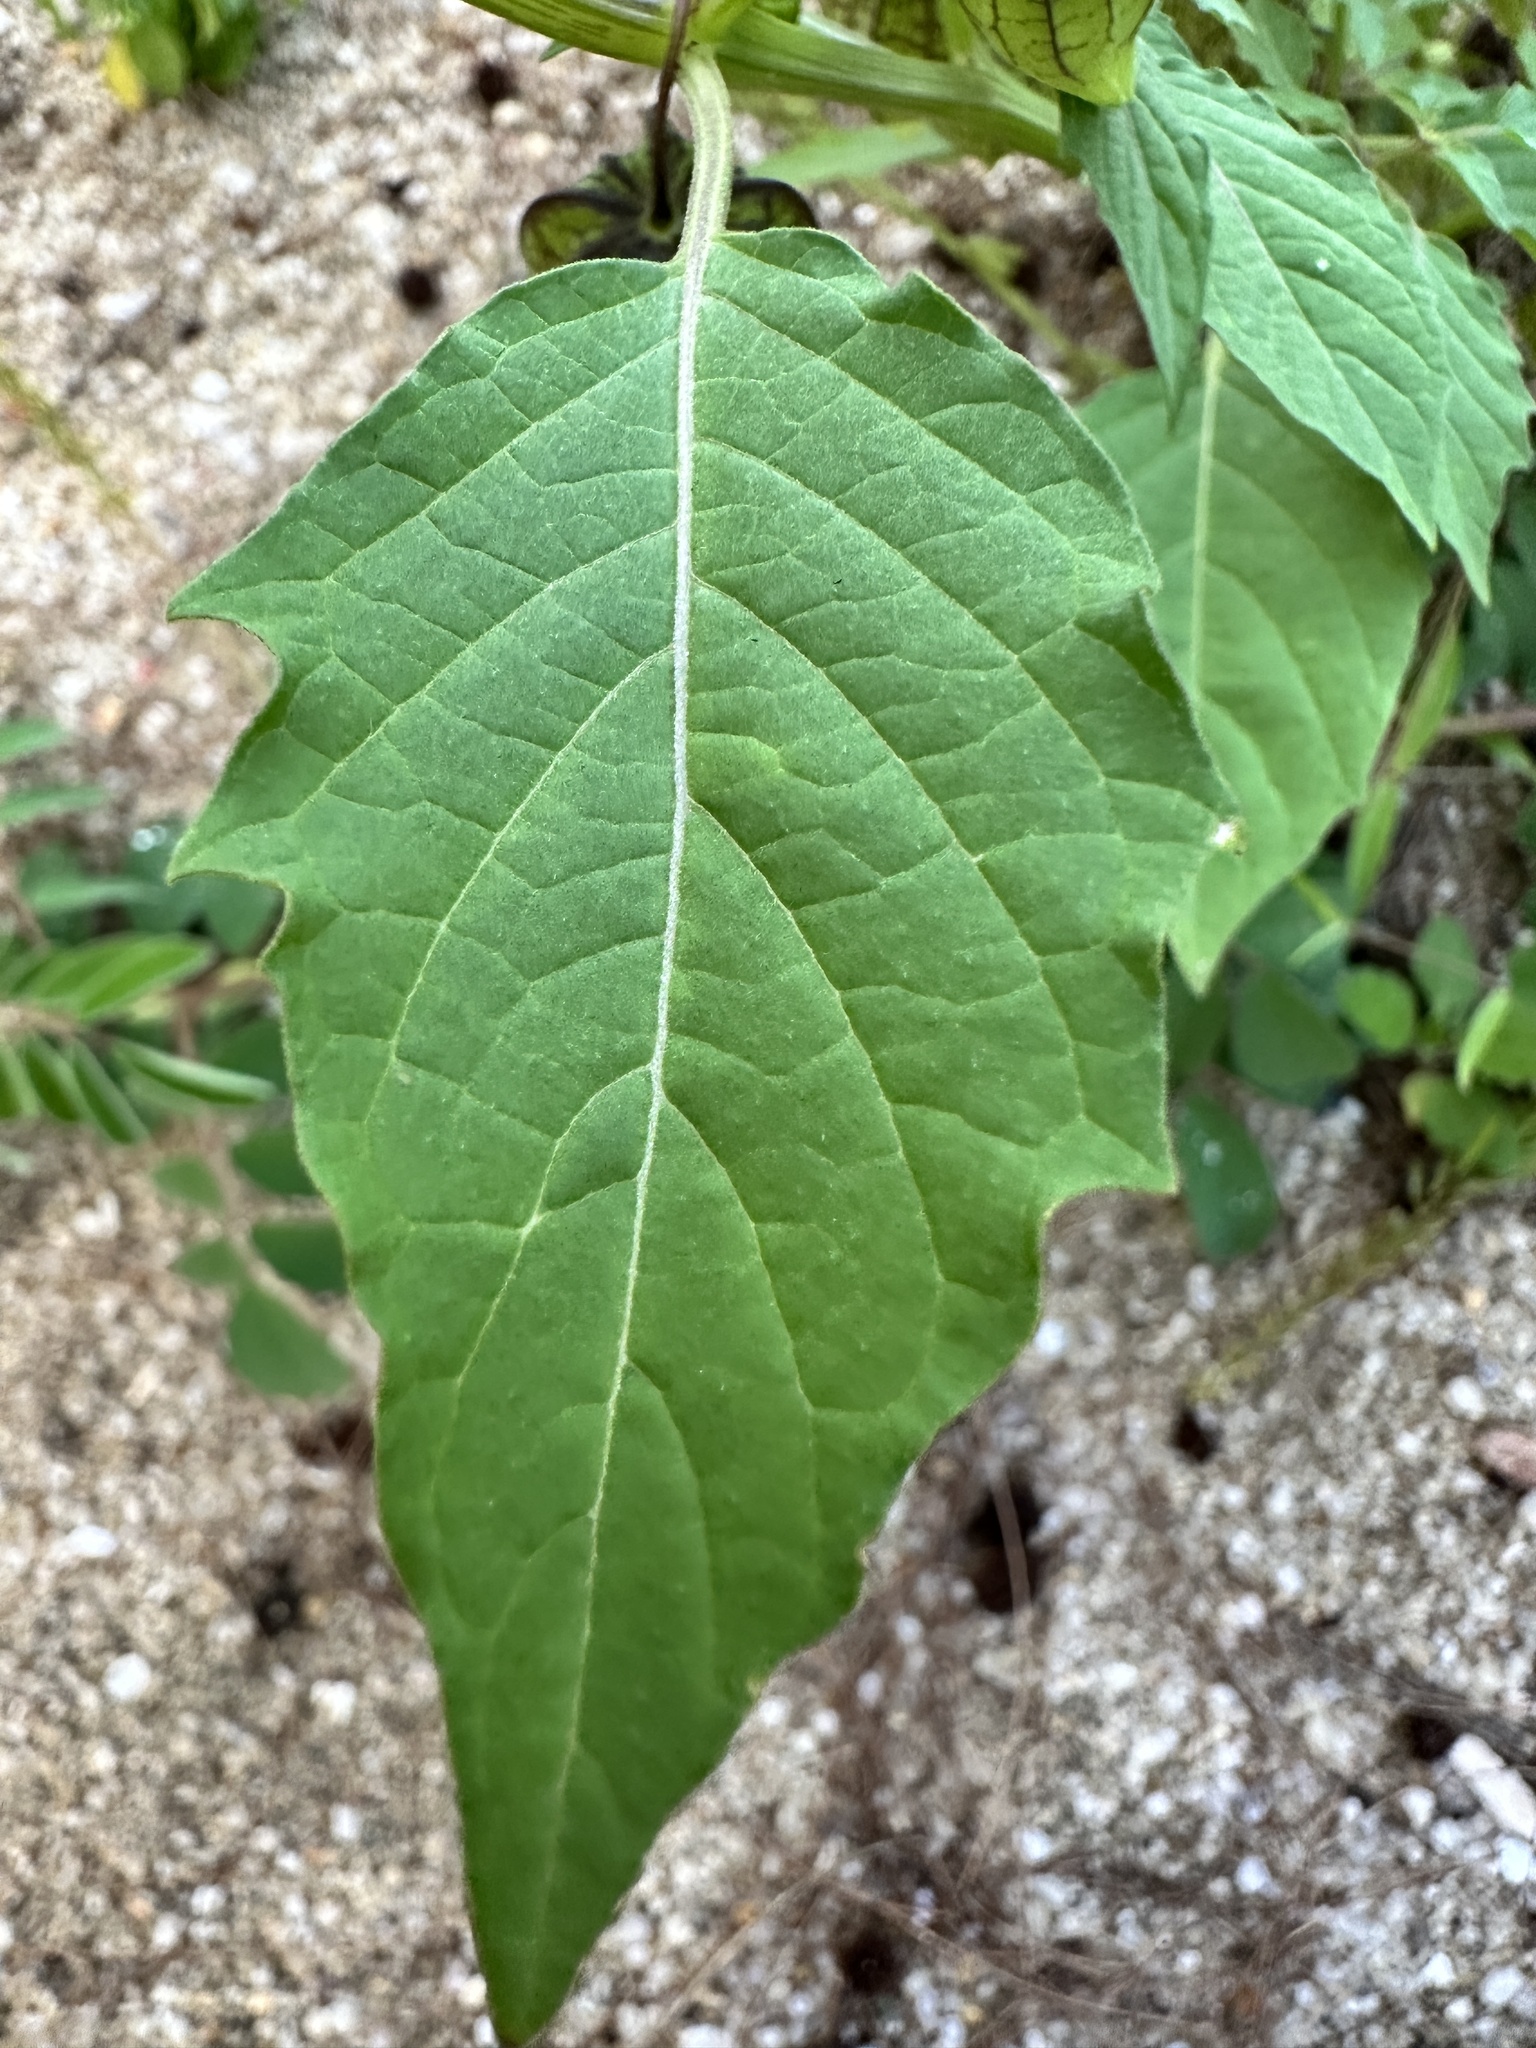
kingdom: Plantae
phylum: Tracheophyta
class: Magnoliopsida
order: Solanales
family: Solanaceae
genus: Physalis
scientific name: Physalis angulata
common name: Angular winter-cherry
